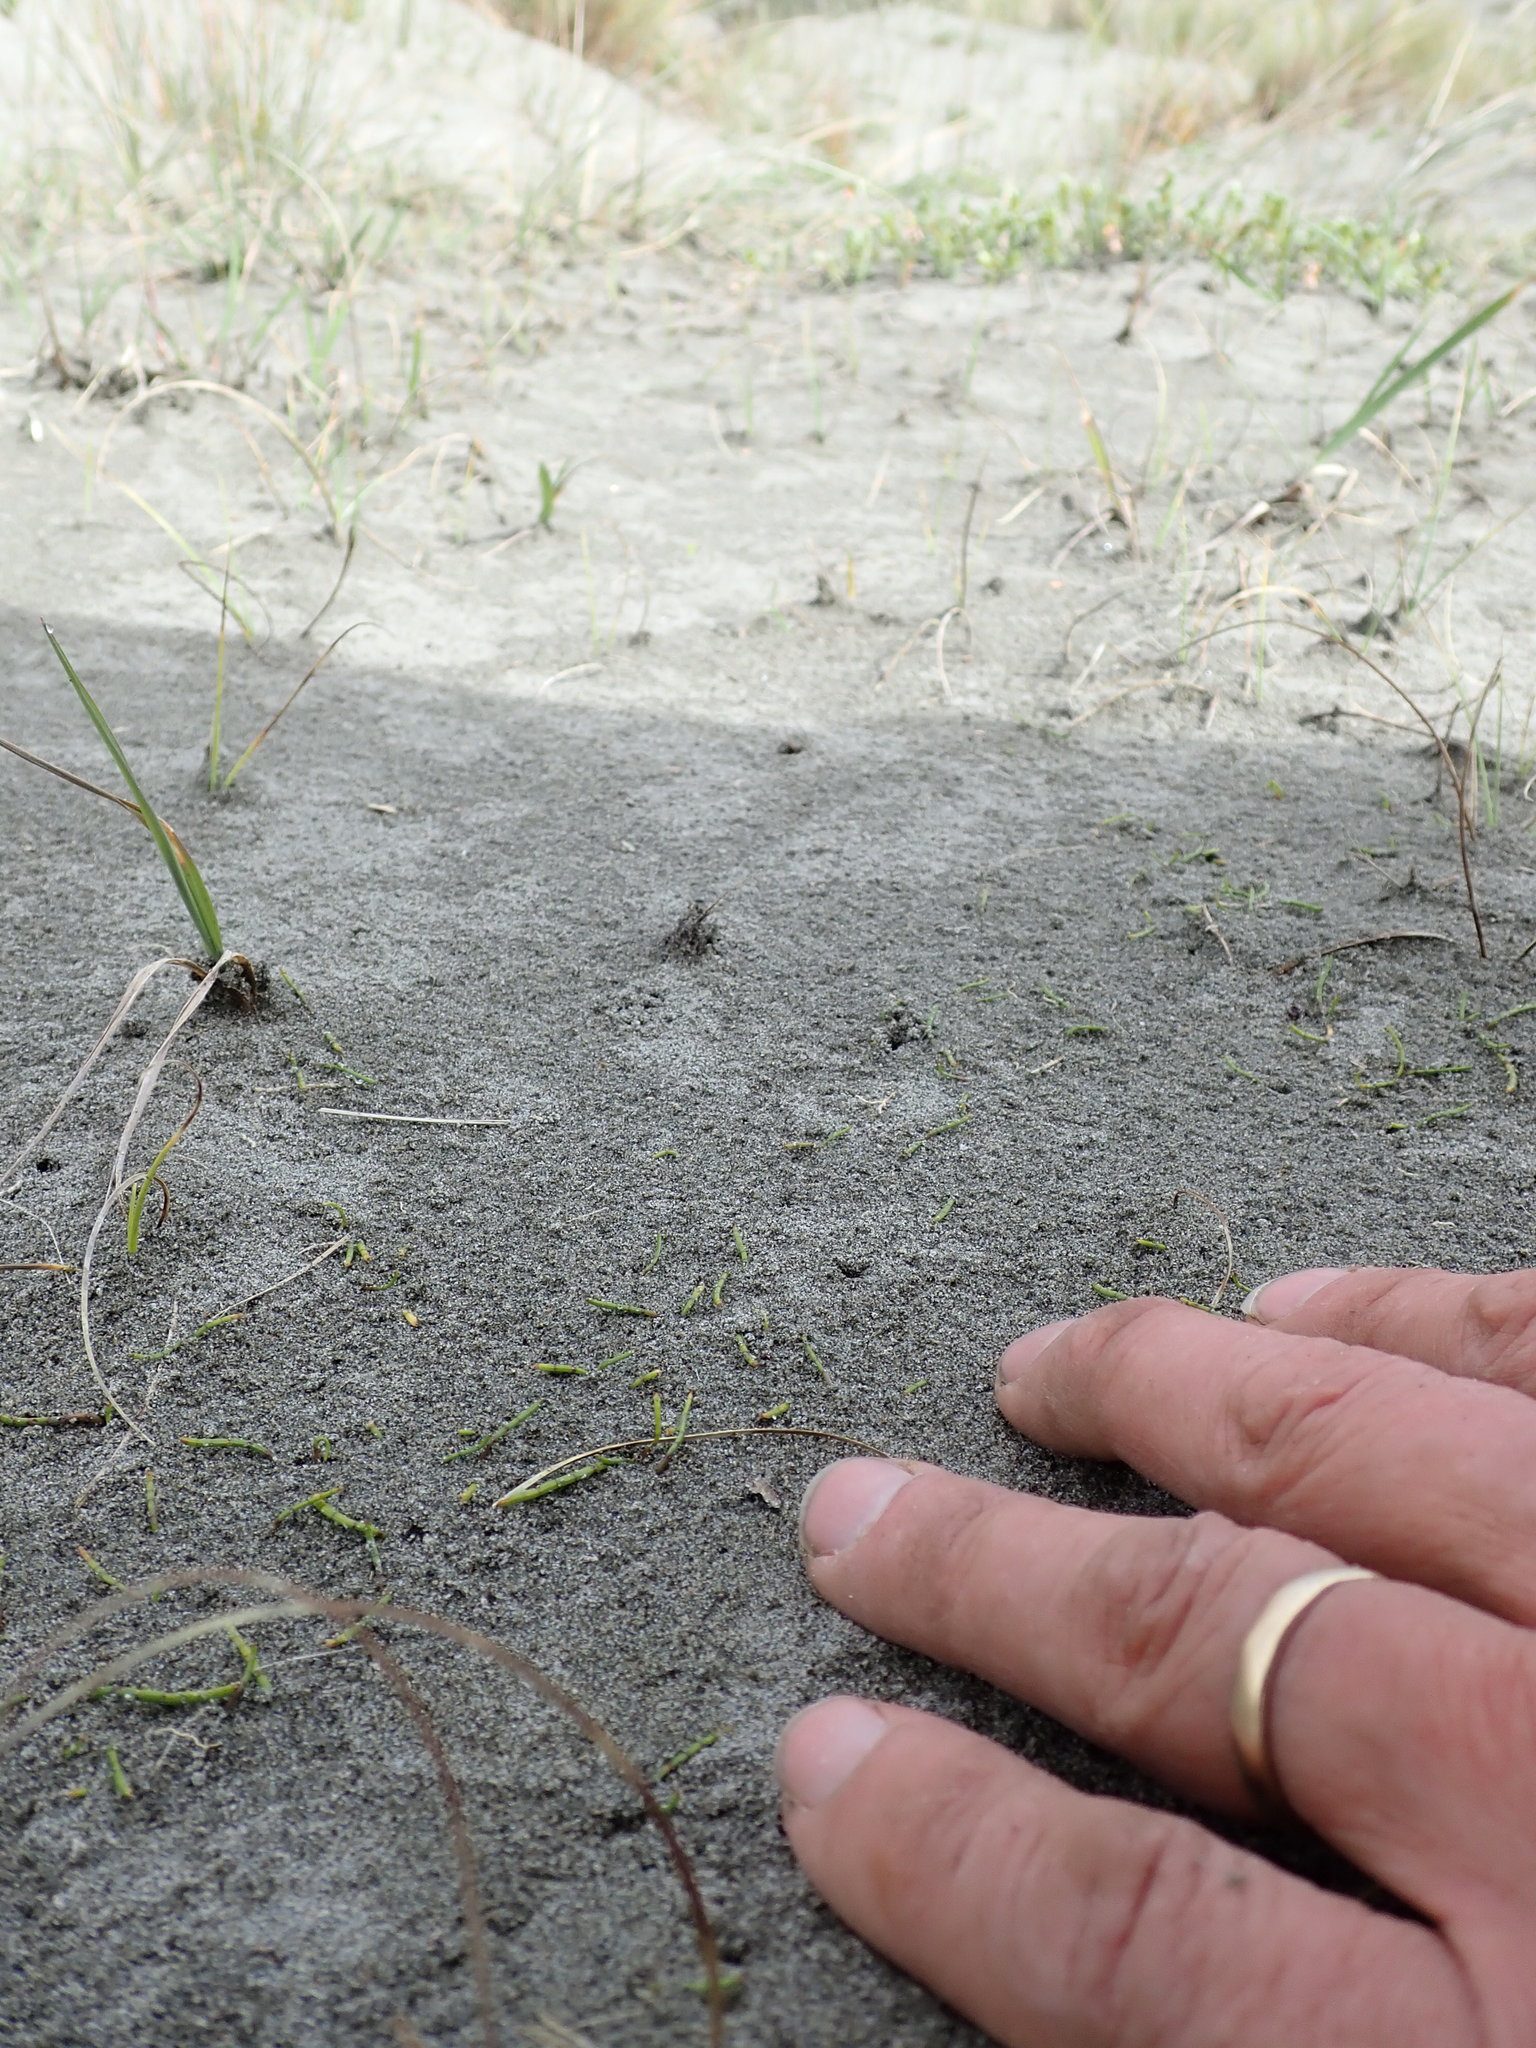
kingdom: Plantae
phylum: Tracheophyta
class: Magnoliopsida
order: Apiales
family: Apiaceae
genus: Lilaeopsis
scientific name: Lilaeopsis novae-zelandiae
